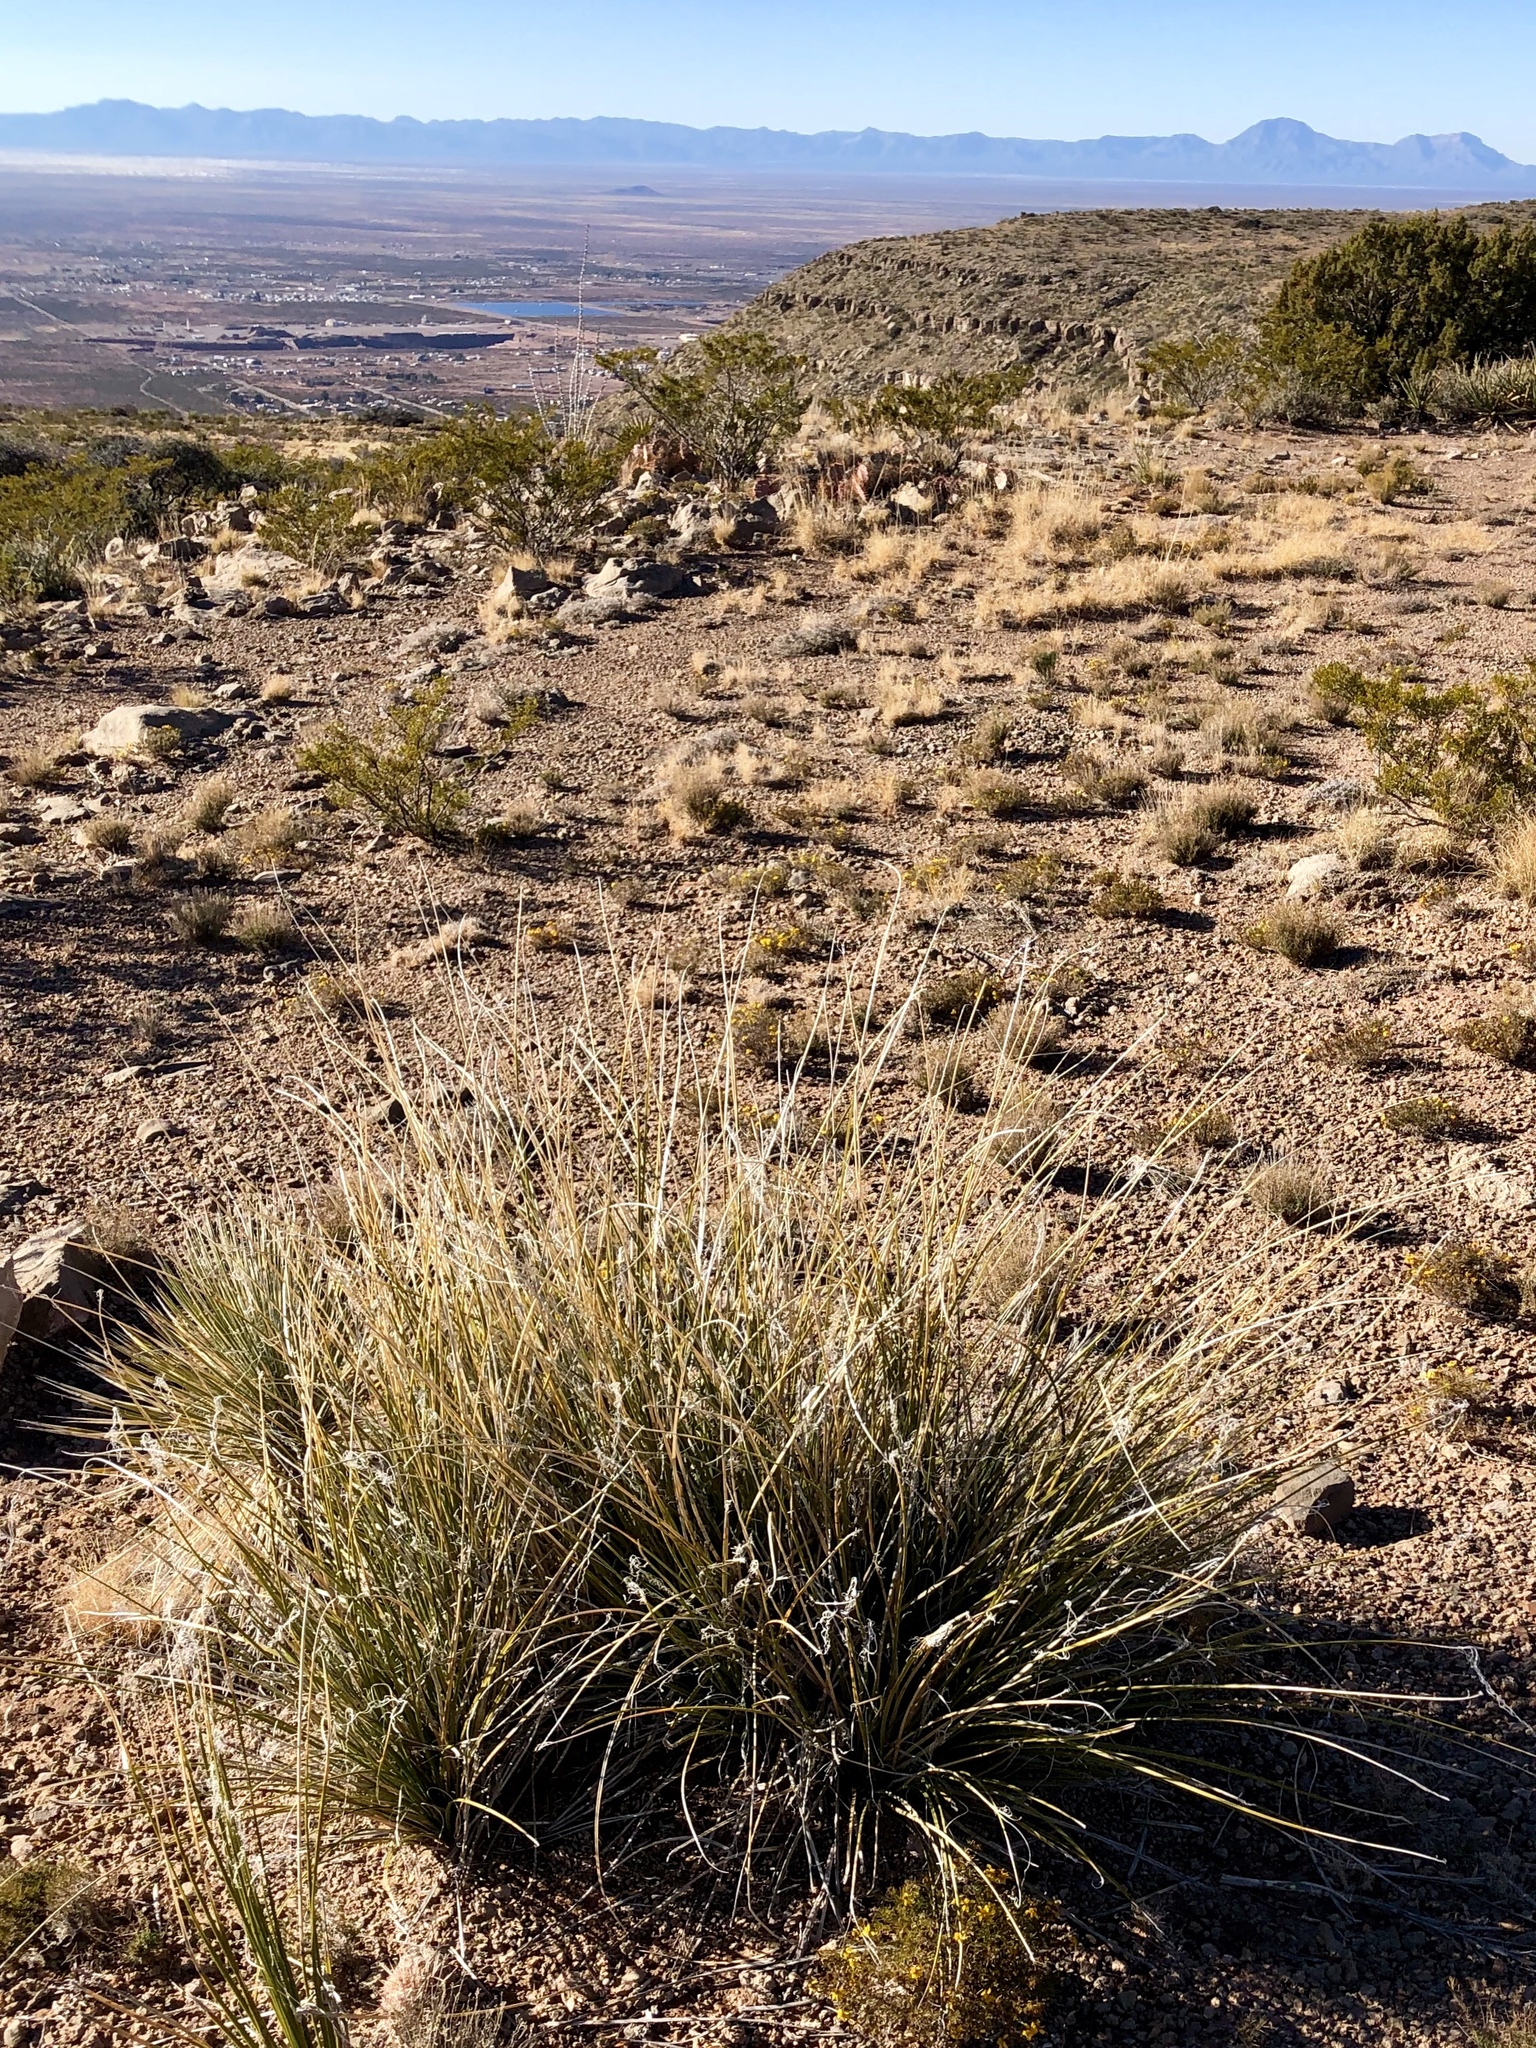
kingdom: Plantae
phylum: Tracheophyta
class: Liliopsida
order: Asparagales
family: Asparagaceae
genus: Nolina
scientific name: Nolina microcarpa
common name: Bear-grass
